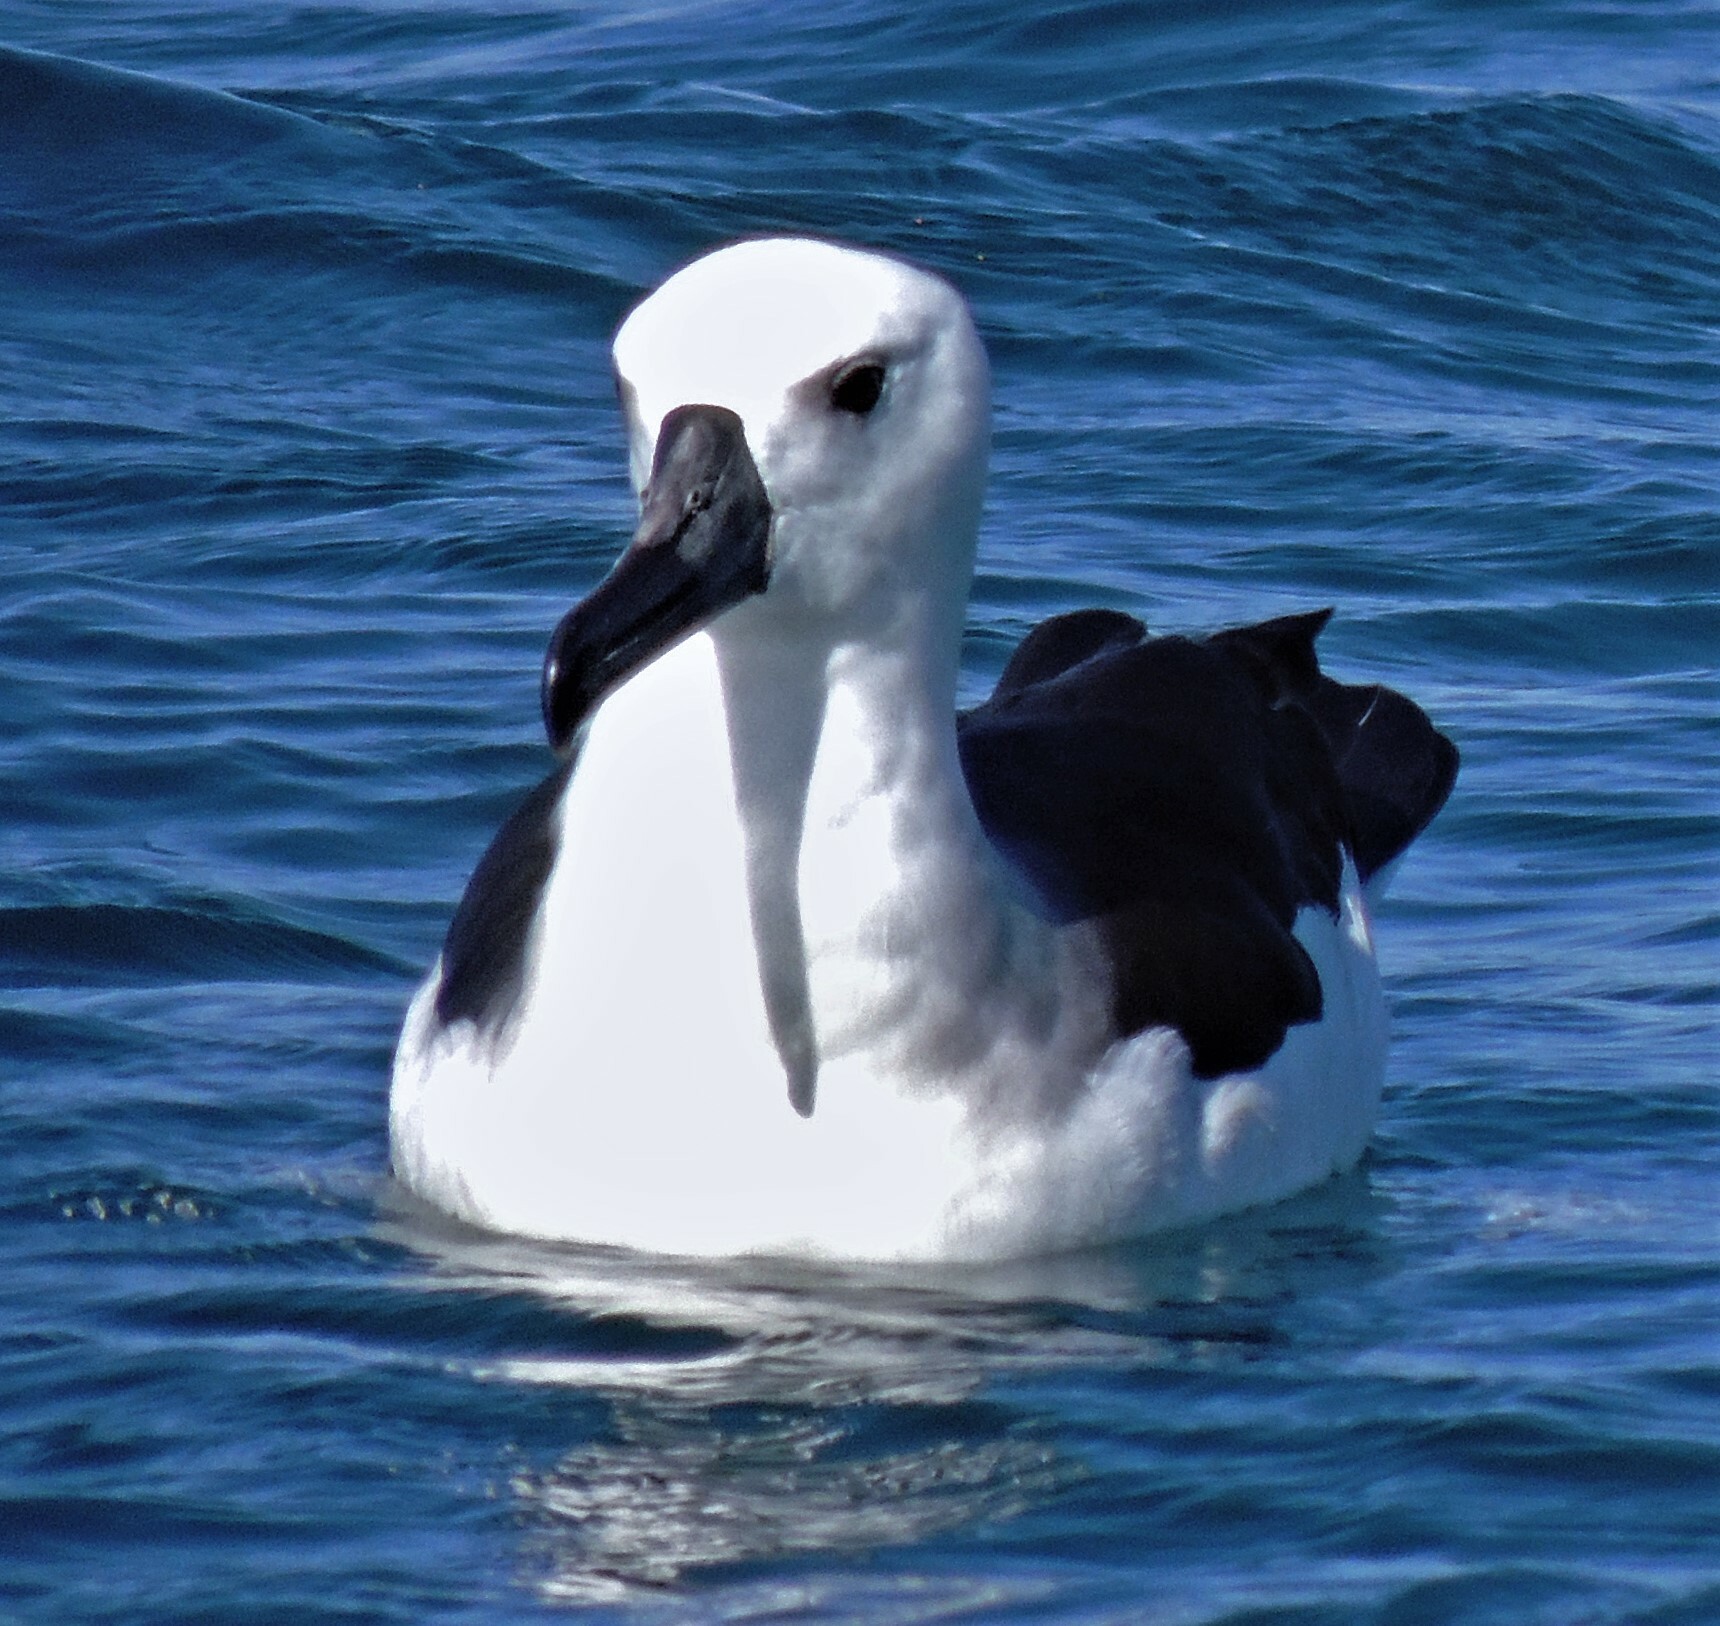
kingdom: Animalia
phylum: Chordata
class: Aves
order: Procellariiformes
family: Diomedeidae
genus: Thalassarche
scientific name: Thalassarche chlororhynchos
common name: Atlantic yellow-nosed albatross
